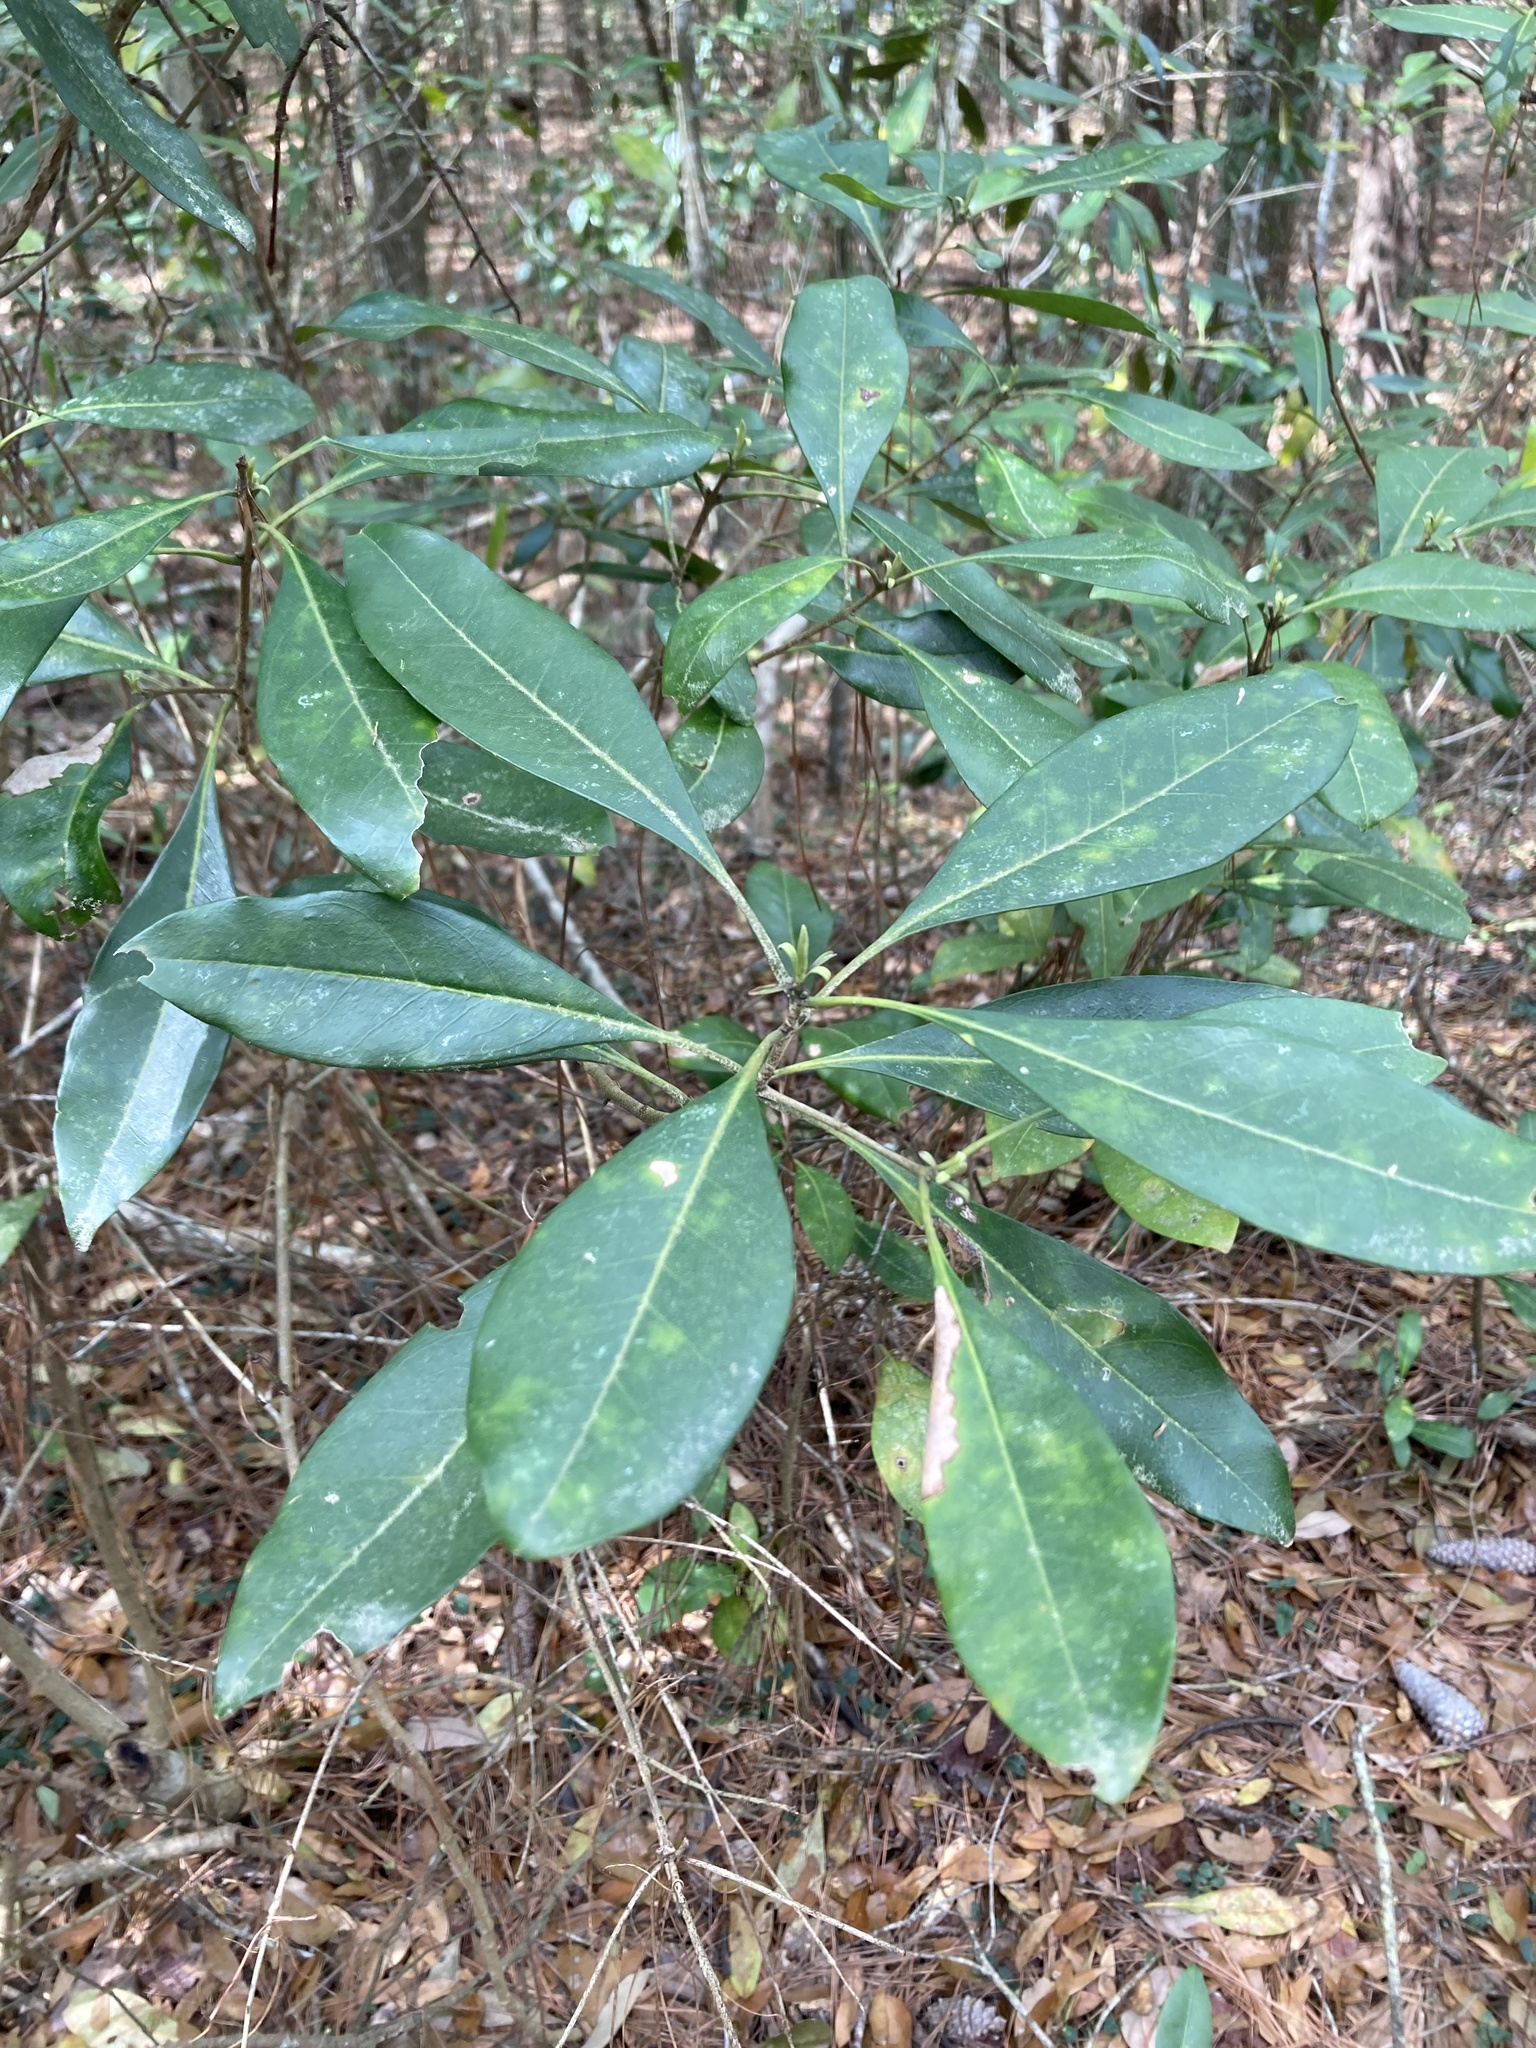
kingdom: Plantae
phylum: Tracheophyta
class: Magnoliopsida
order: Lamiales
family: Oleaceae
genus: Cartrema
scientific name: Cartrema americana
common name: Devilwood
